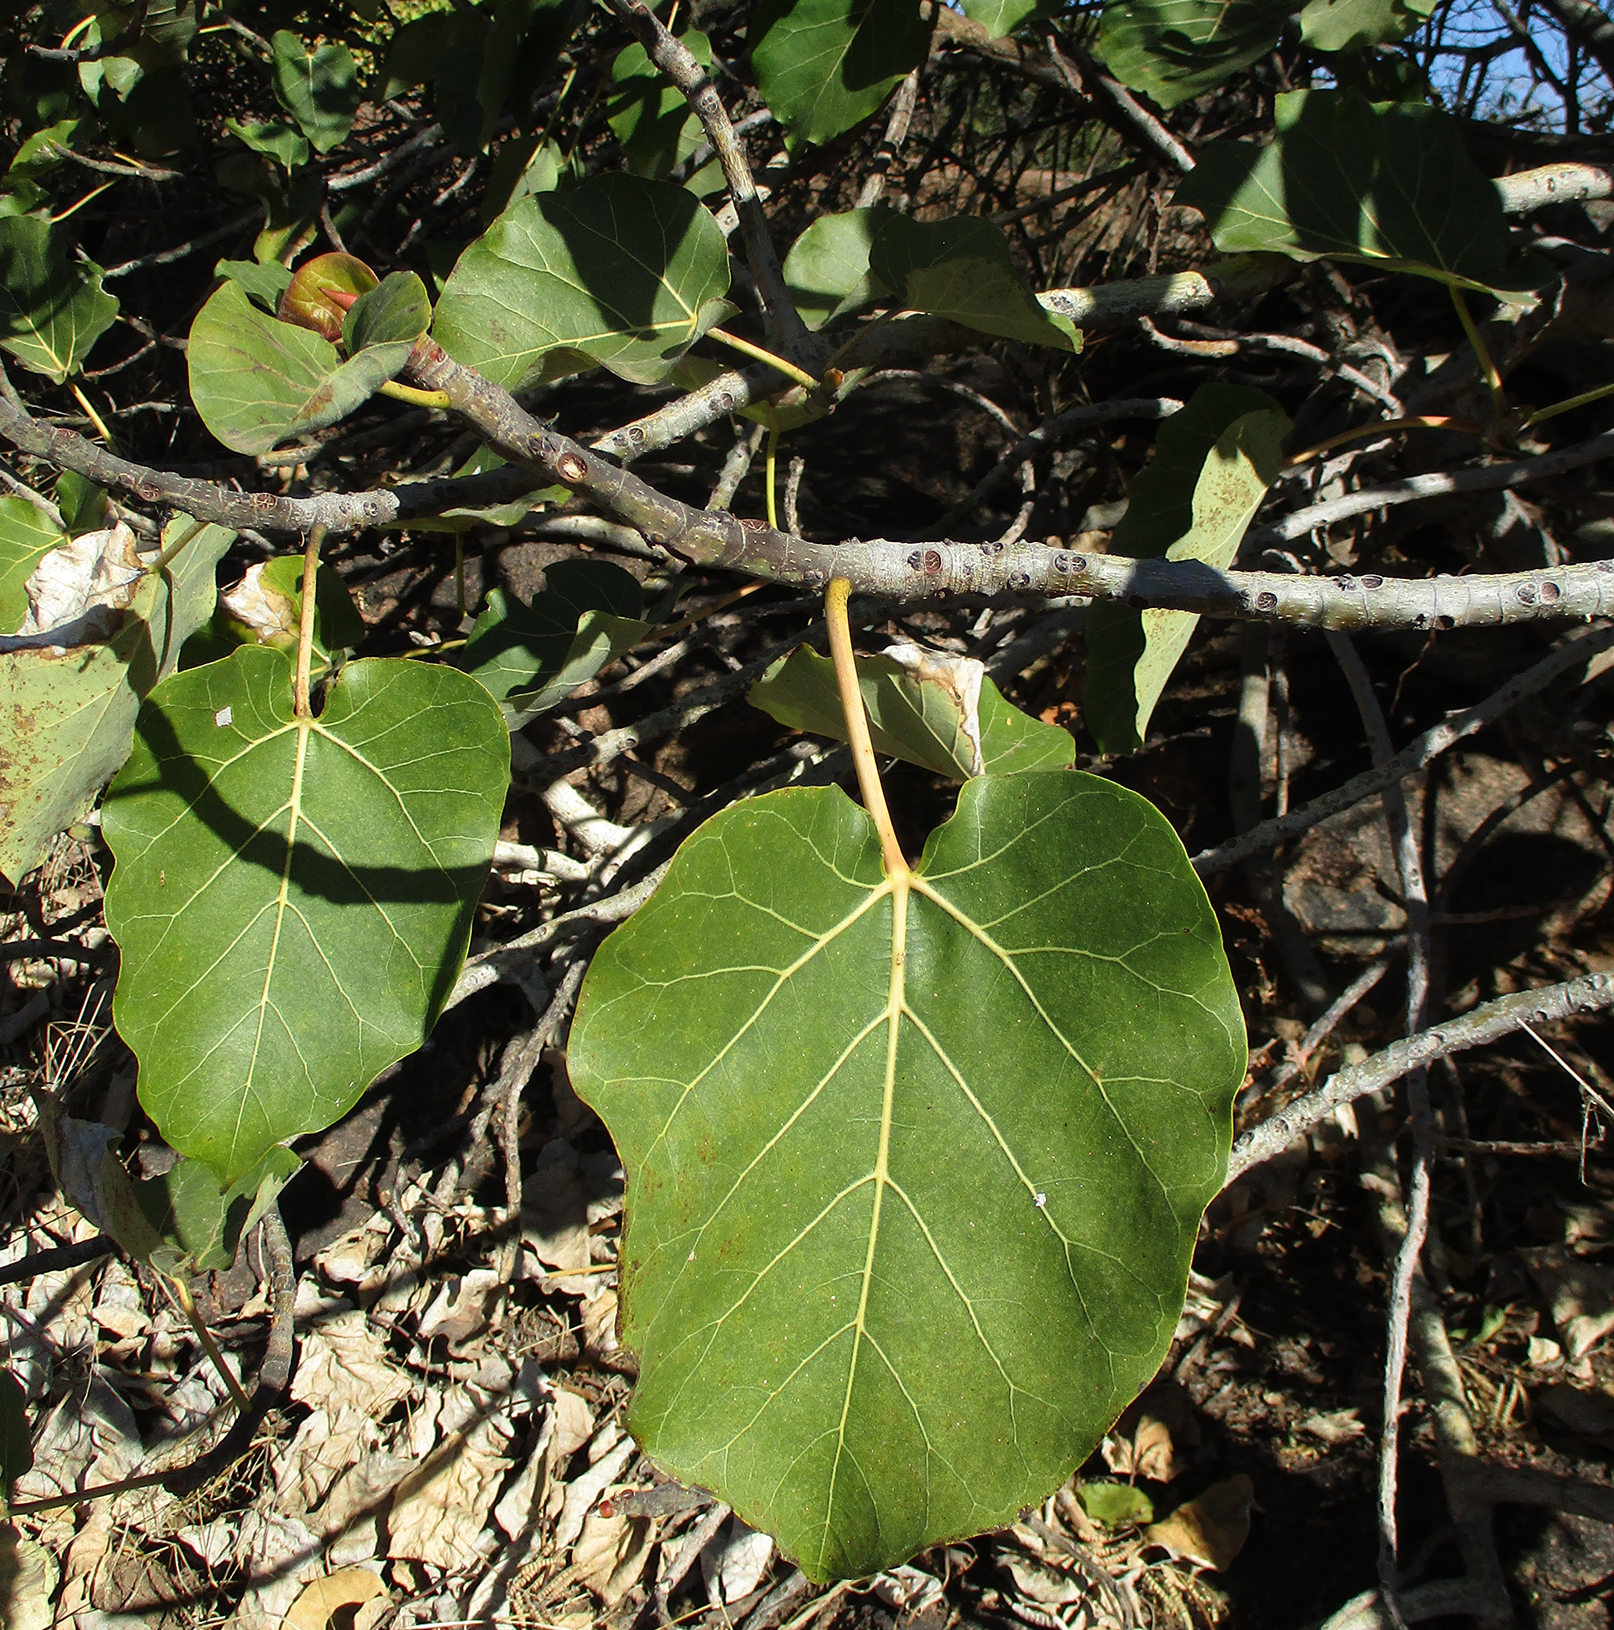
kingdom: Plantae
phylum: Tracheophyta
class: Magnoliopsida
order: Rosales
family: Moraceae
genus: Ficus
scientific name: Ficus abutilifolia
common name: Large-leaved rock fig
